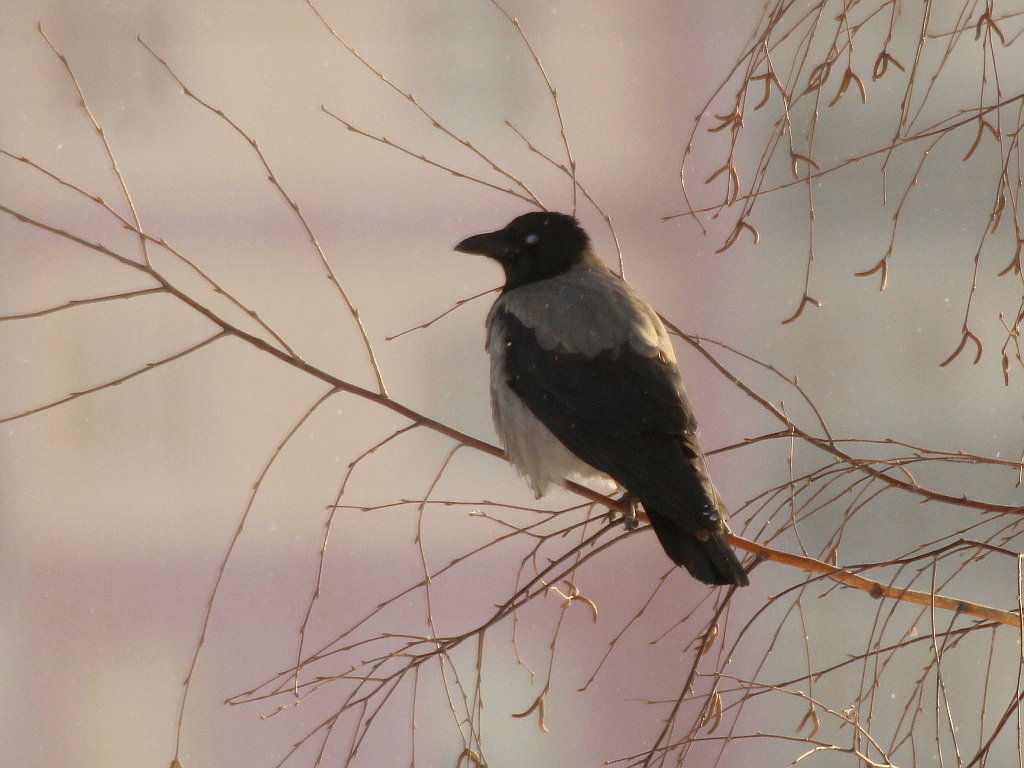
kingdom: Animalia
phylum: Chordata
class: Aves
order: Passeriformes
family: Corvidae
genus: Corvus
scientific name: Corvus cornix
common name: Hooded crow
